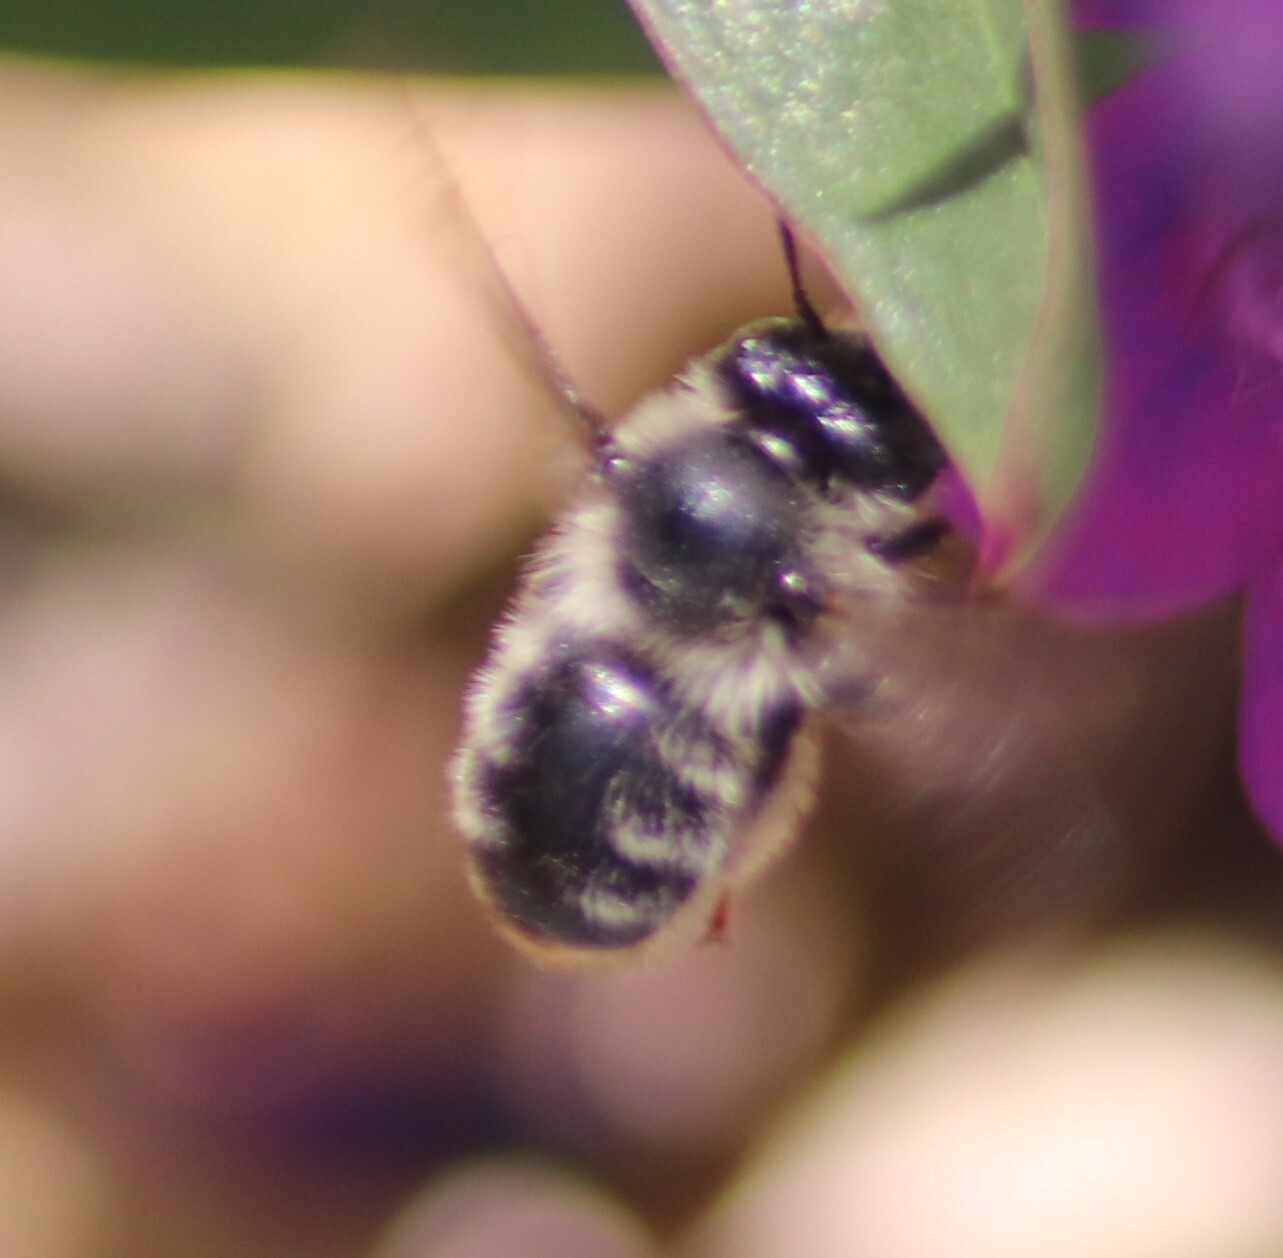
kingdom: Animalia
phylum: Arthropoda
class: Insecta
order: Hymenoptera
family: Apidae
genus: Anthophora
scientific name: Anthophora terminalis
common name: Orange-tipped wood-digger bee
